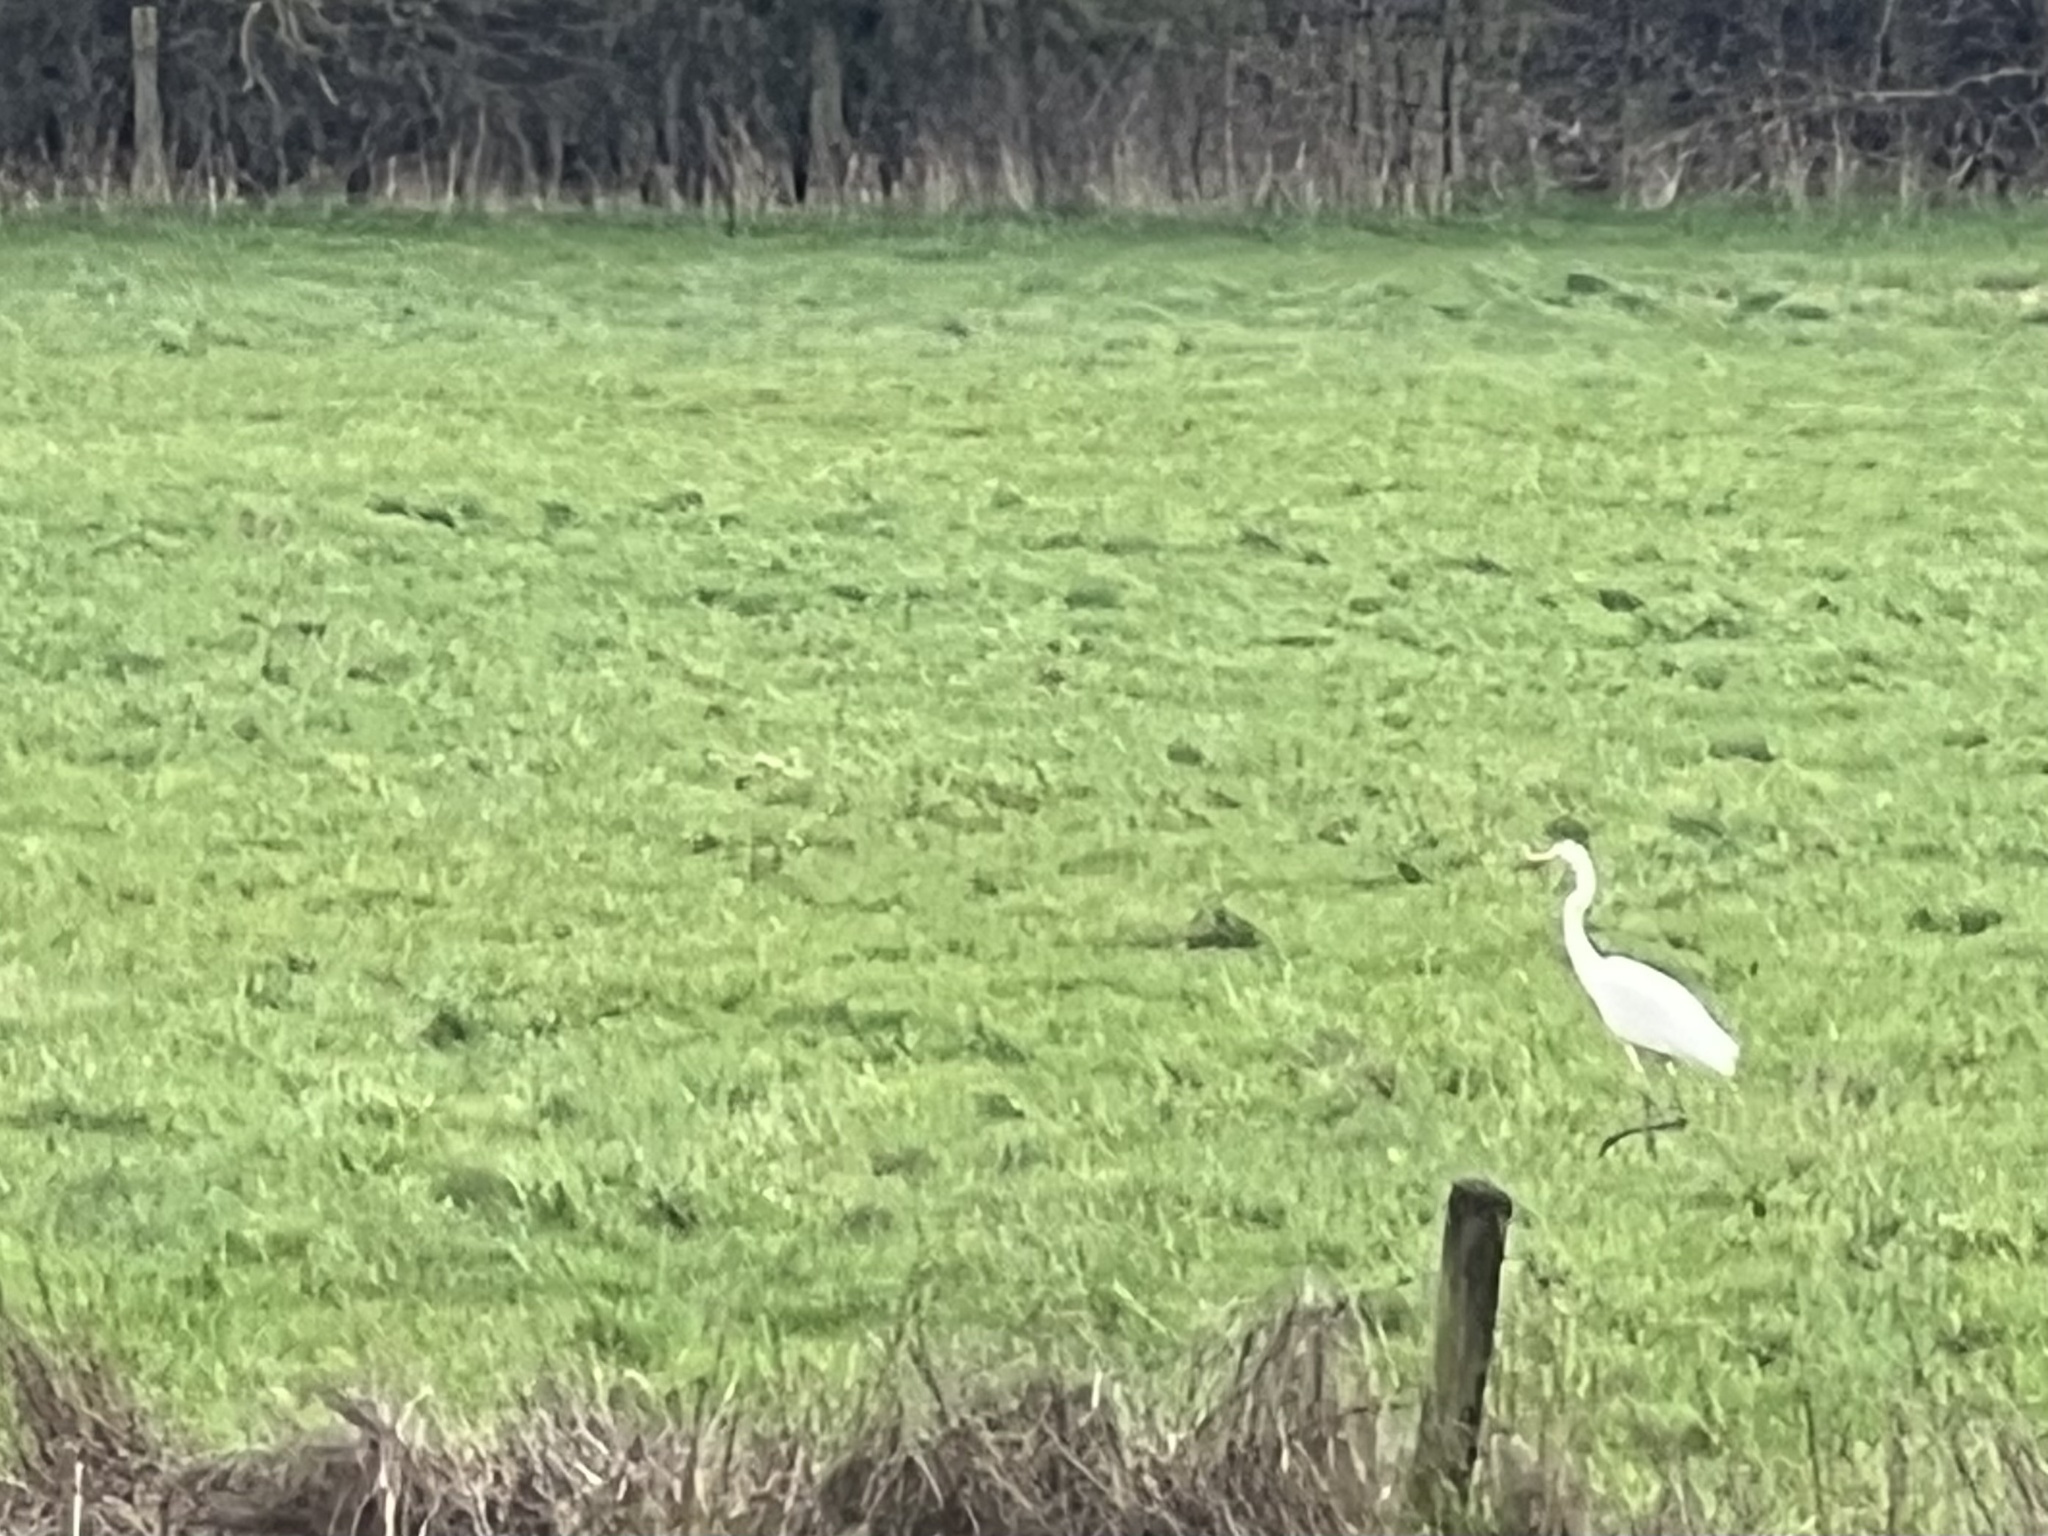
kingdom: Animalia
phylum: Chordata
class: Aves
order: Pelecaniformes
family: Ardeidae
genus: Ardea
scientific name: Ardea alba
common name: Great egret
